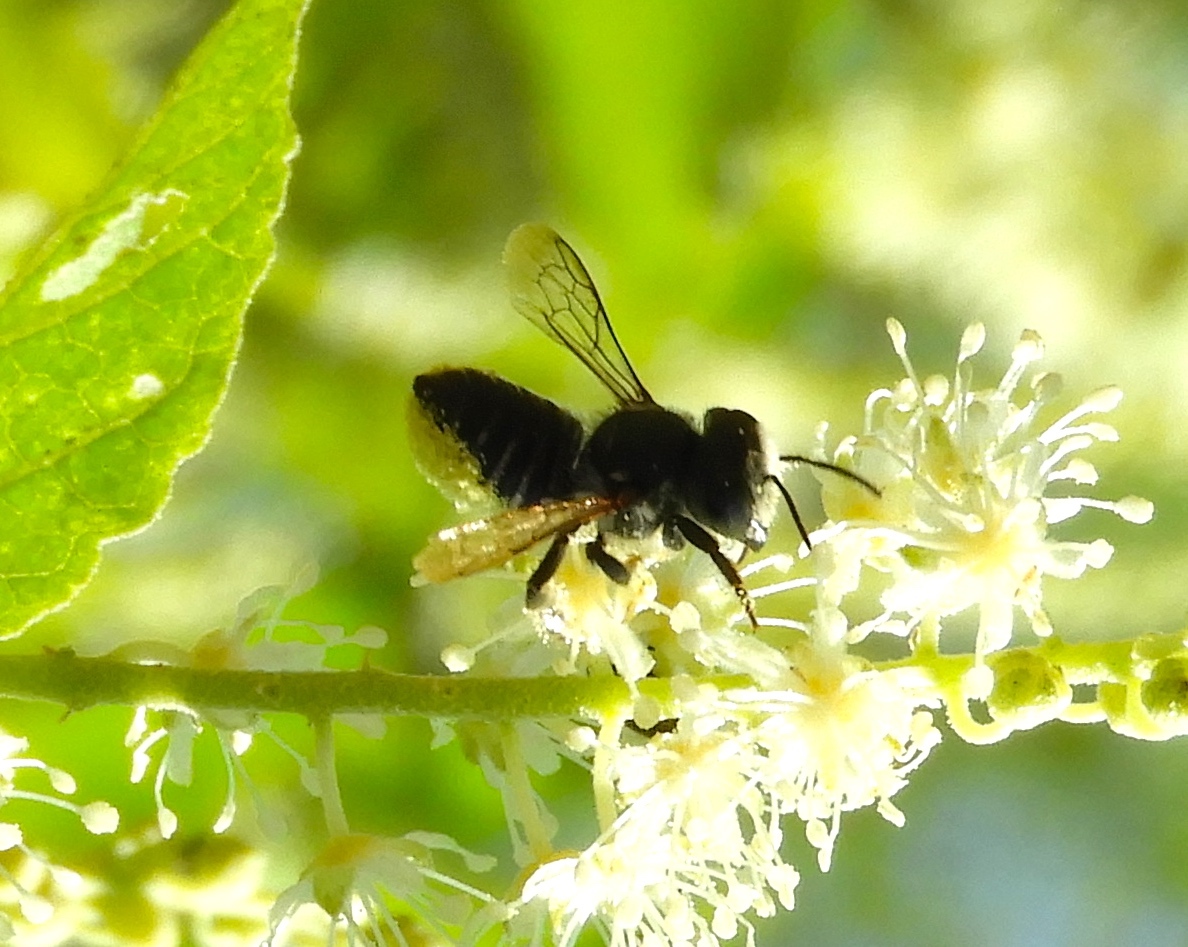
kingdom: Animalia
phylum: Arthropoda
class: Insecta
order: Hymenoptera
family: Megachilidae
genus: Megachile
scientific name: Megachile
